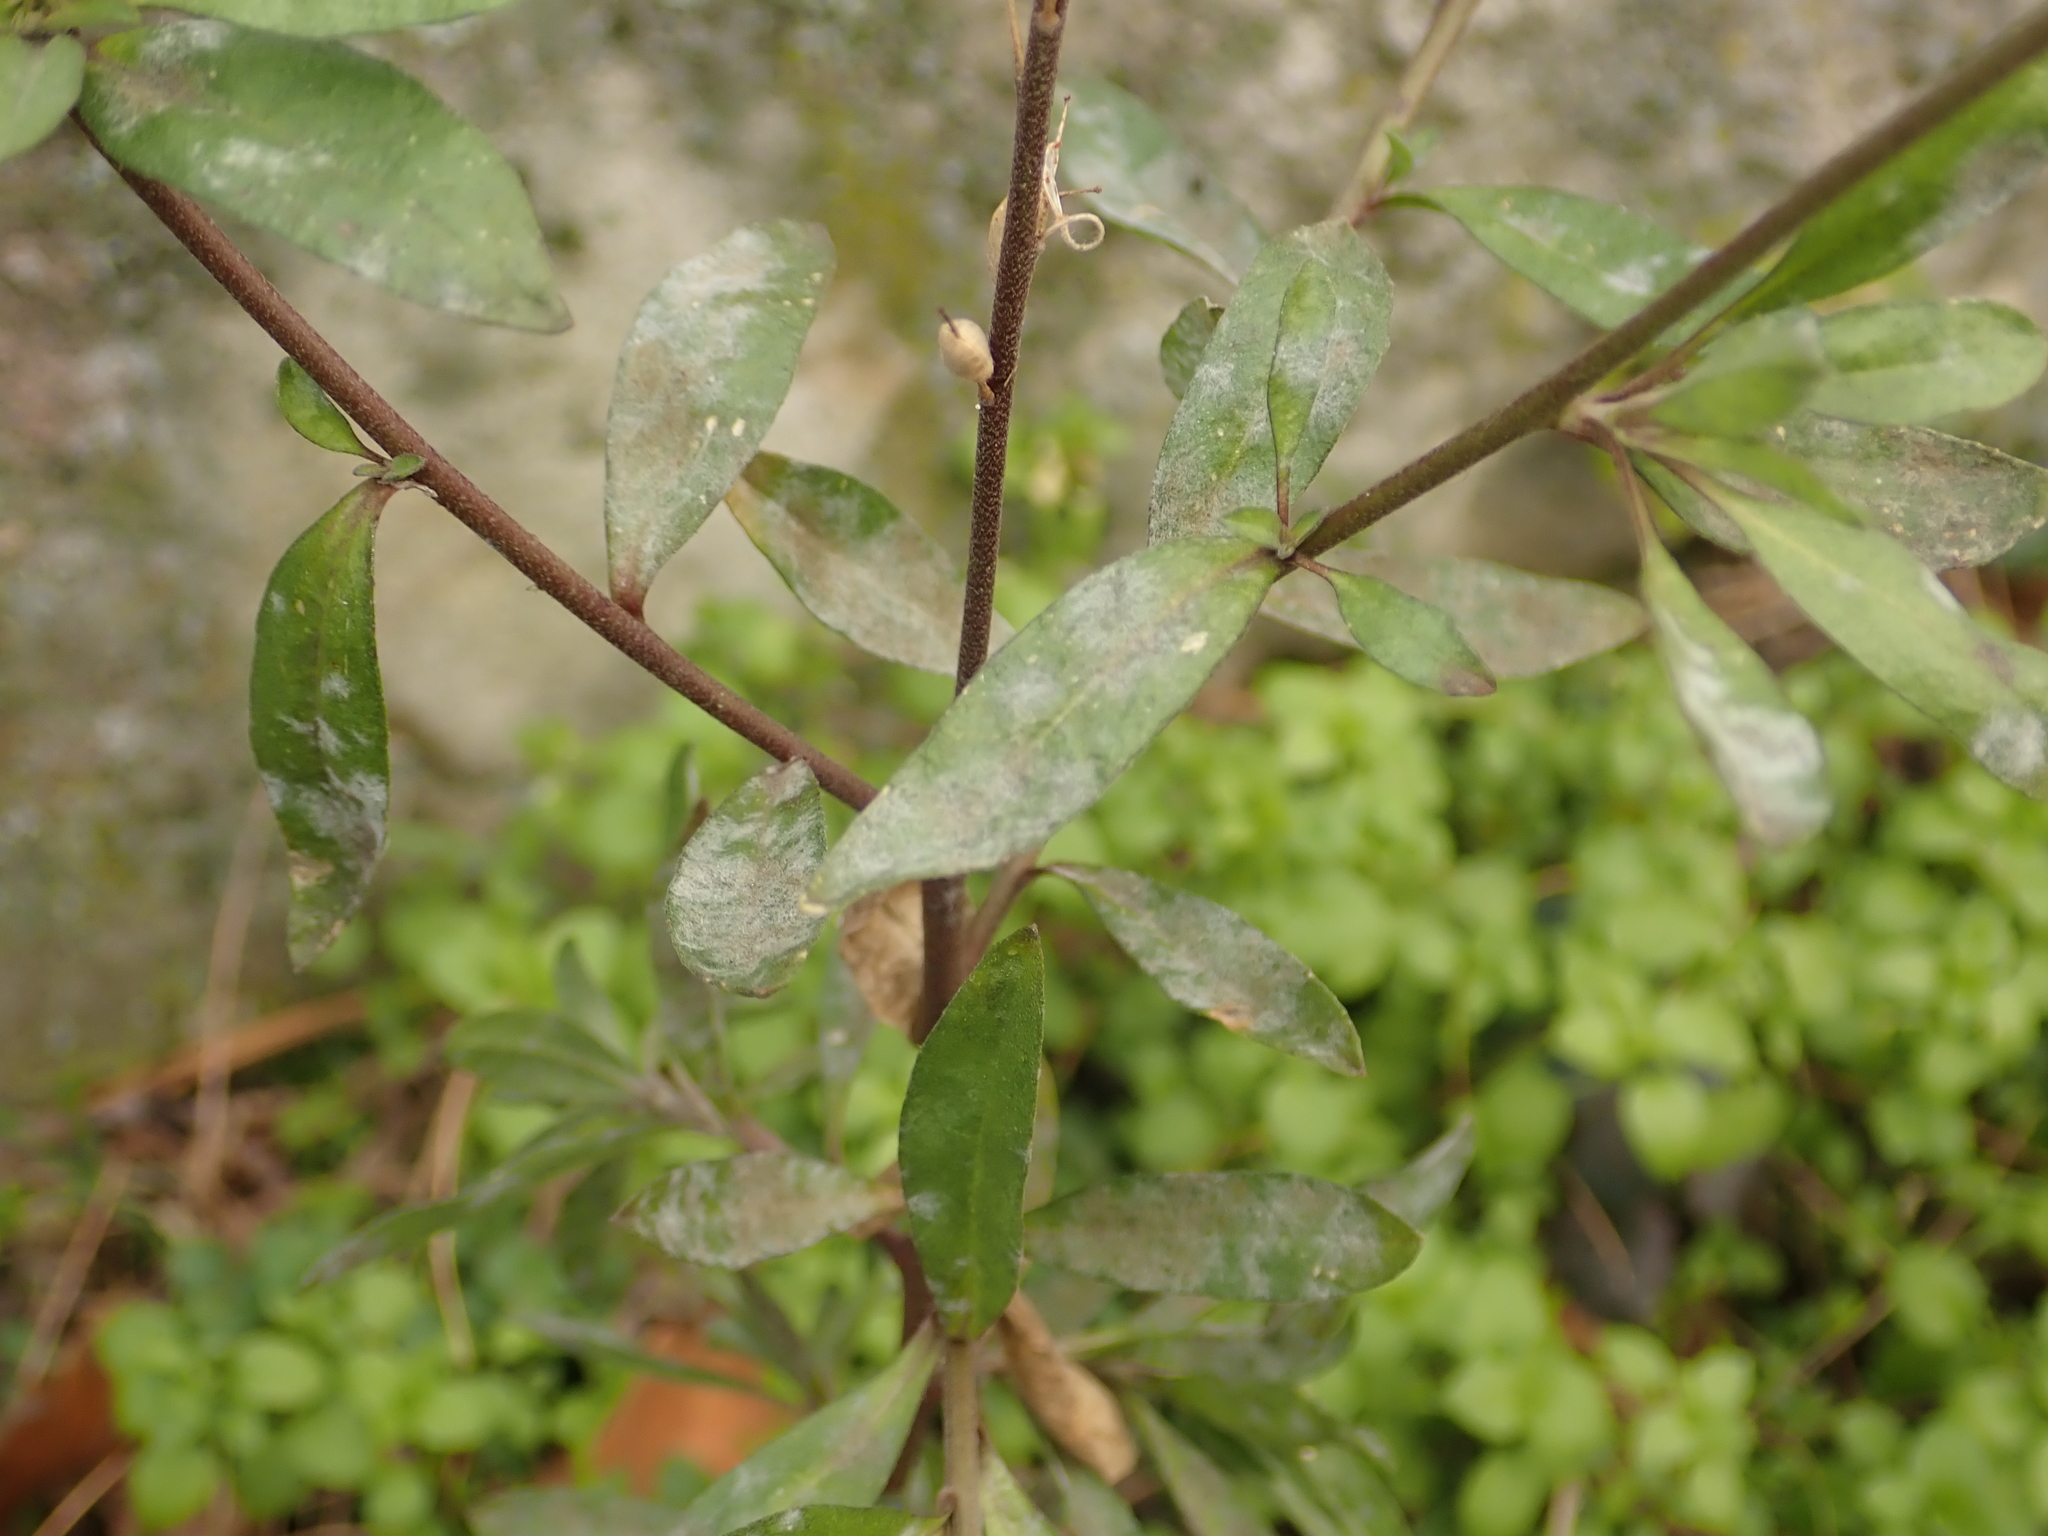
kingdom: Plantae
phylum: Tracheophyta
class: Magnoliopsida
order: Brassicales
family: Brassicaceae
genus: Berteroa
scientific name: Berteroa incana
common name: Hoary alison
